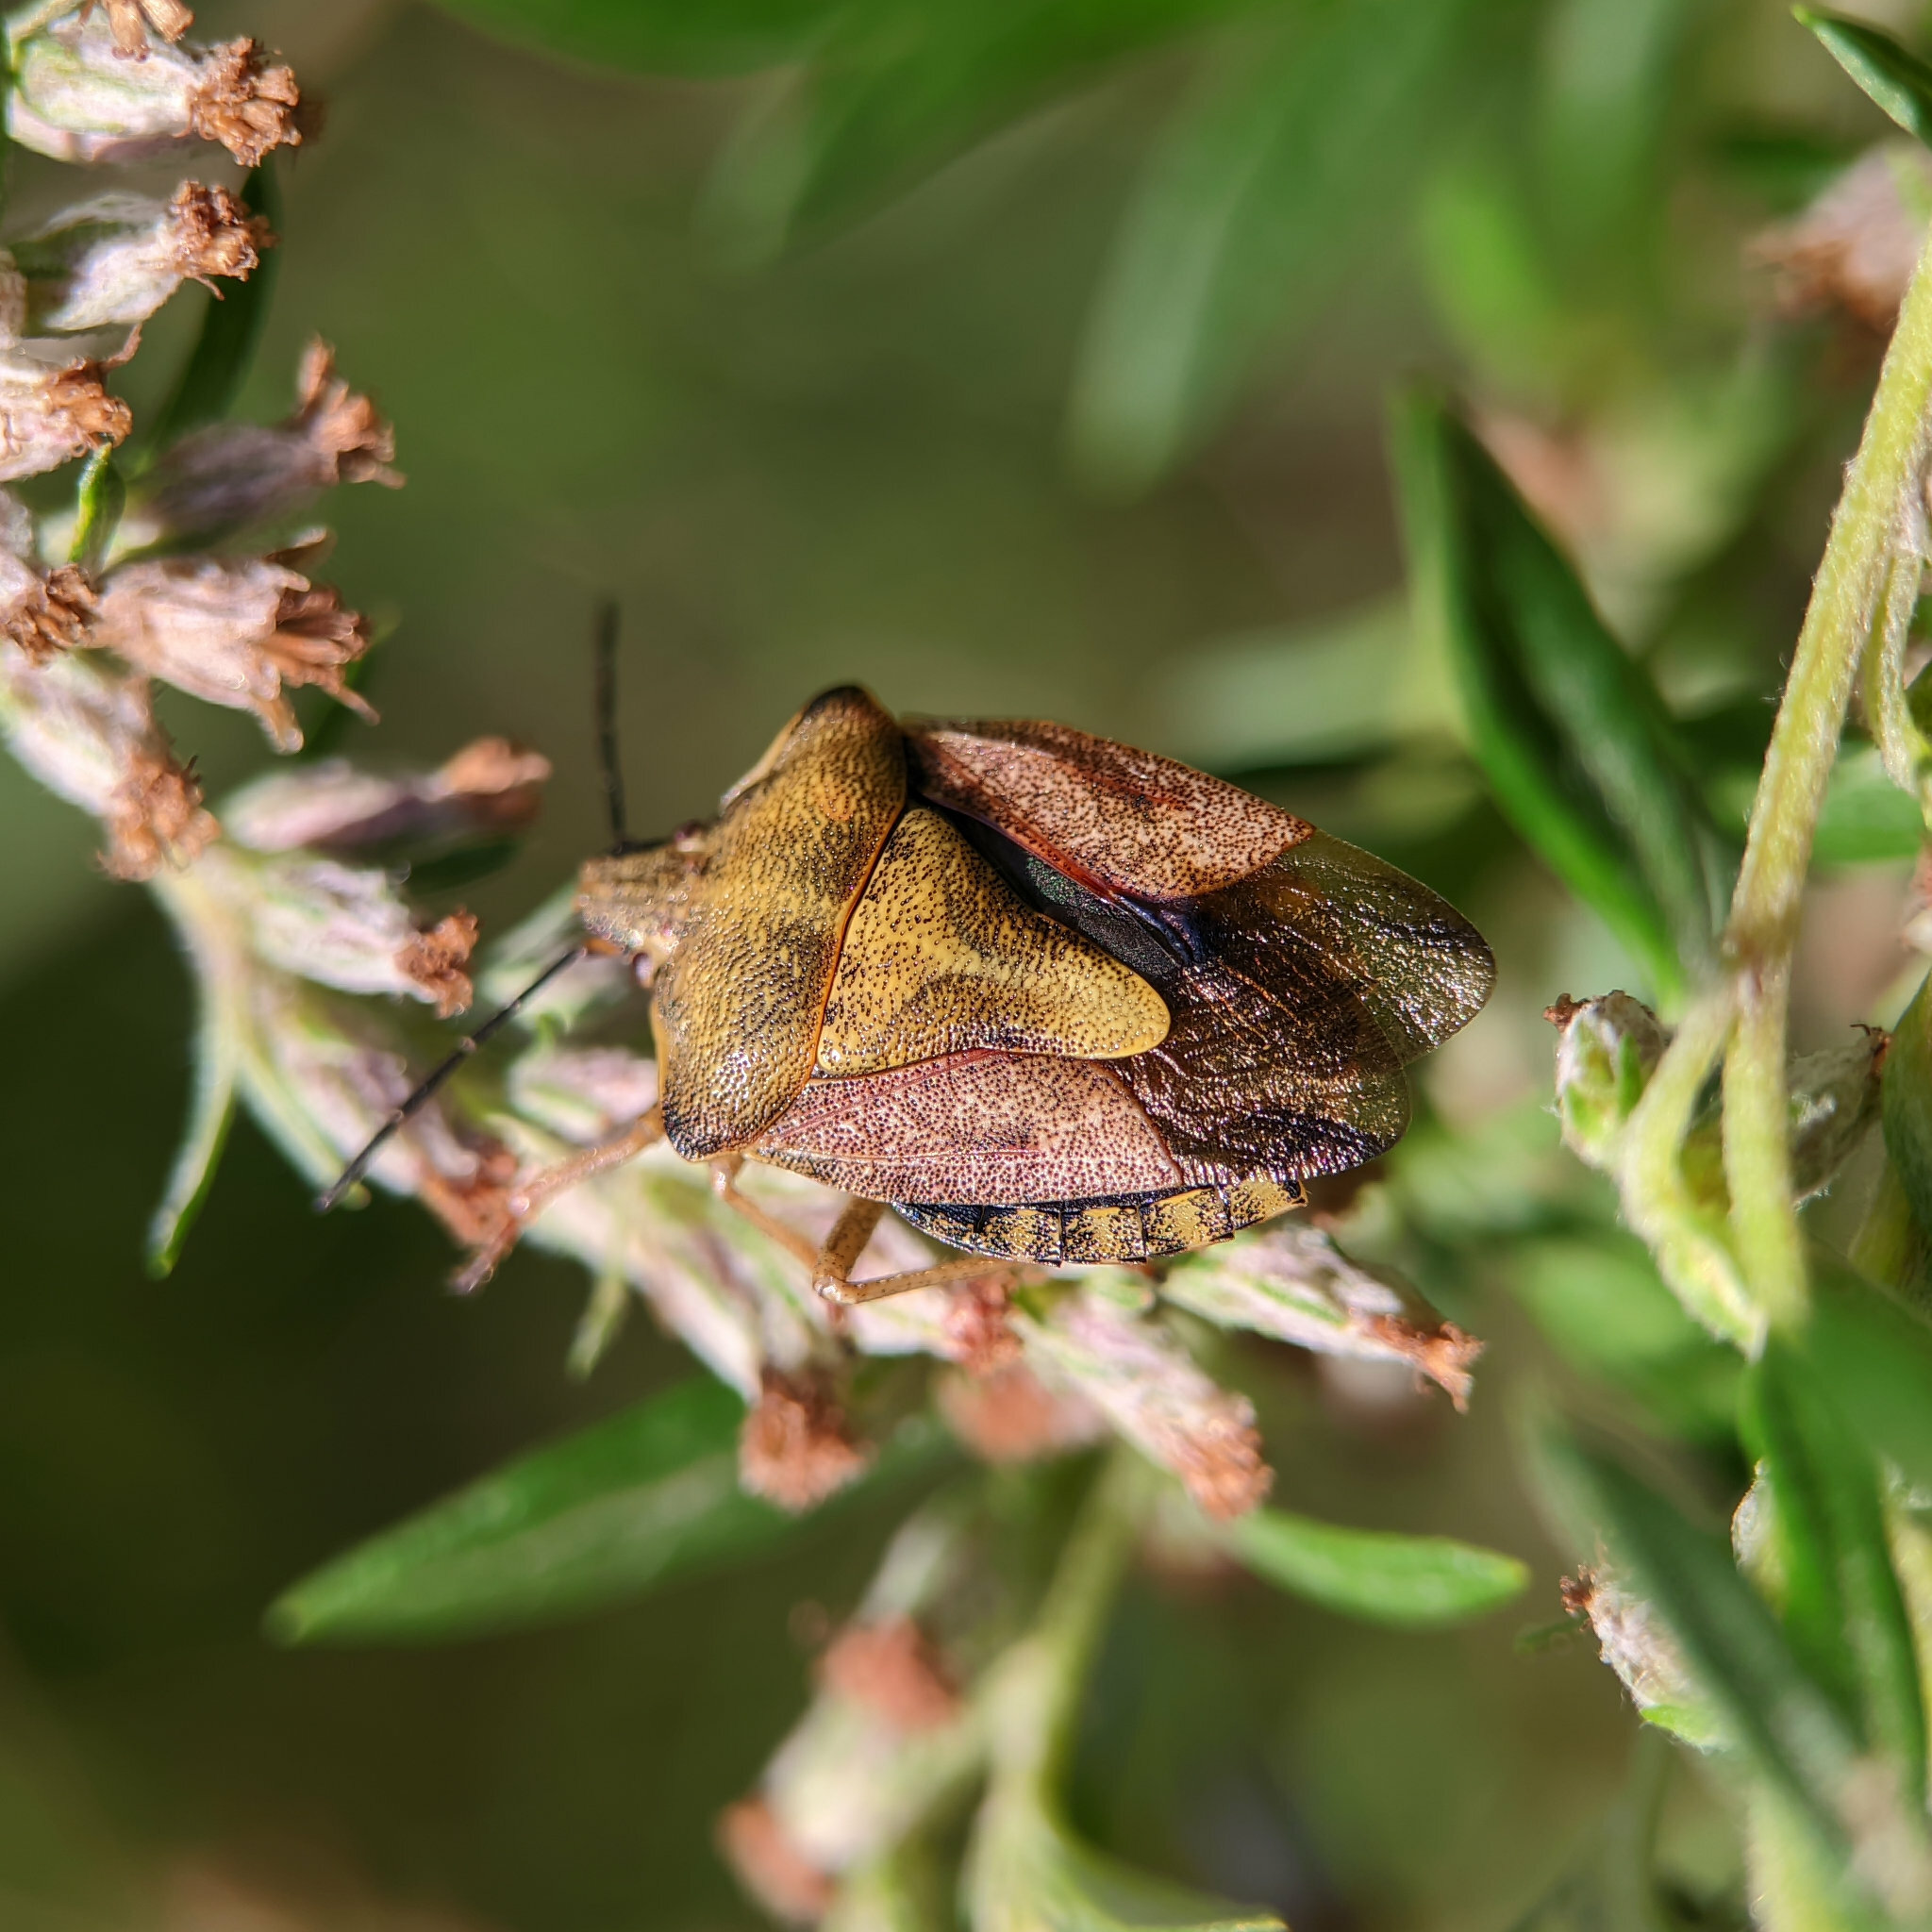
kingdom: Animalia
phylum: Arthropoda
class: Insecta
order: Hemiptera
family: Pentatomidae
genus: Carpocoris
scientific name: Carpocoris purpureipennis
